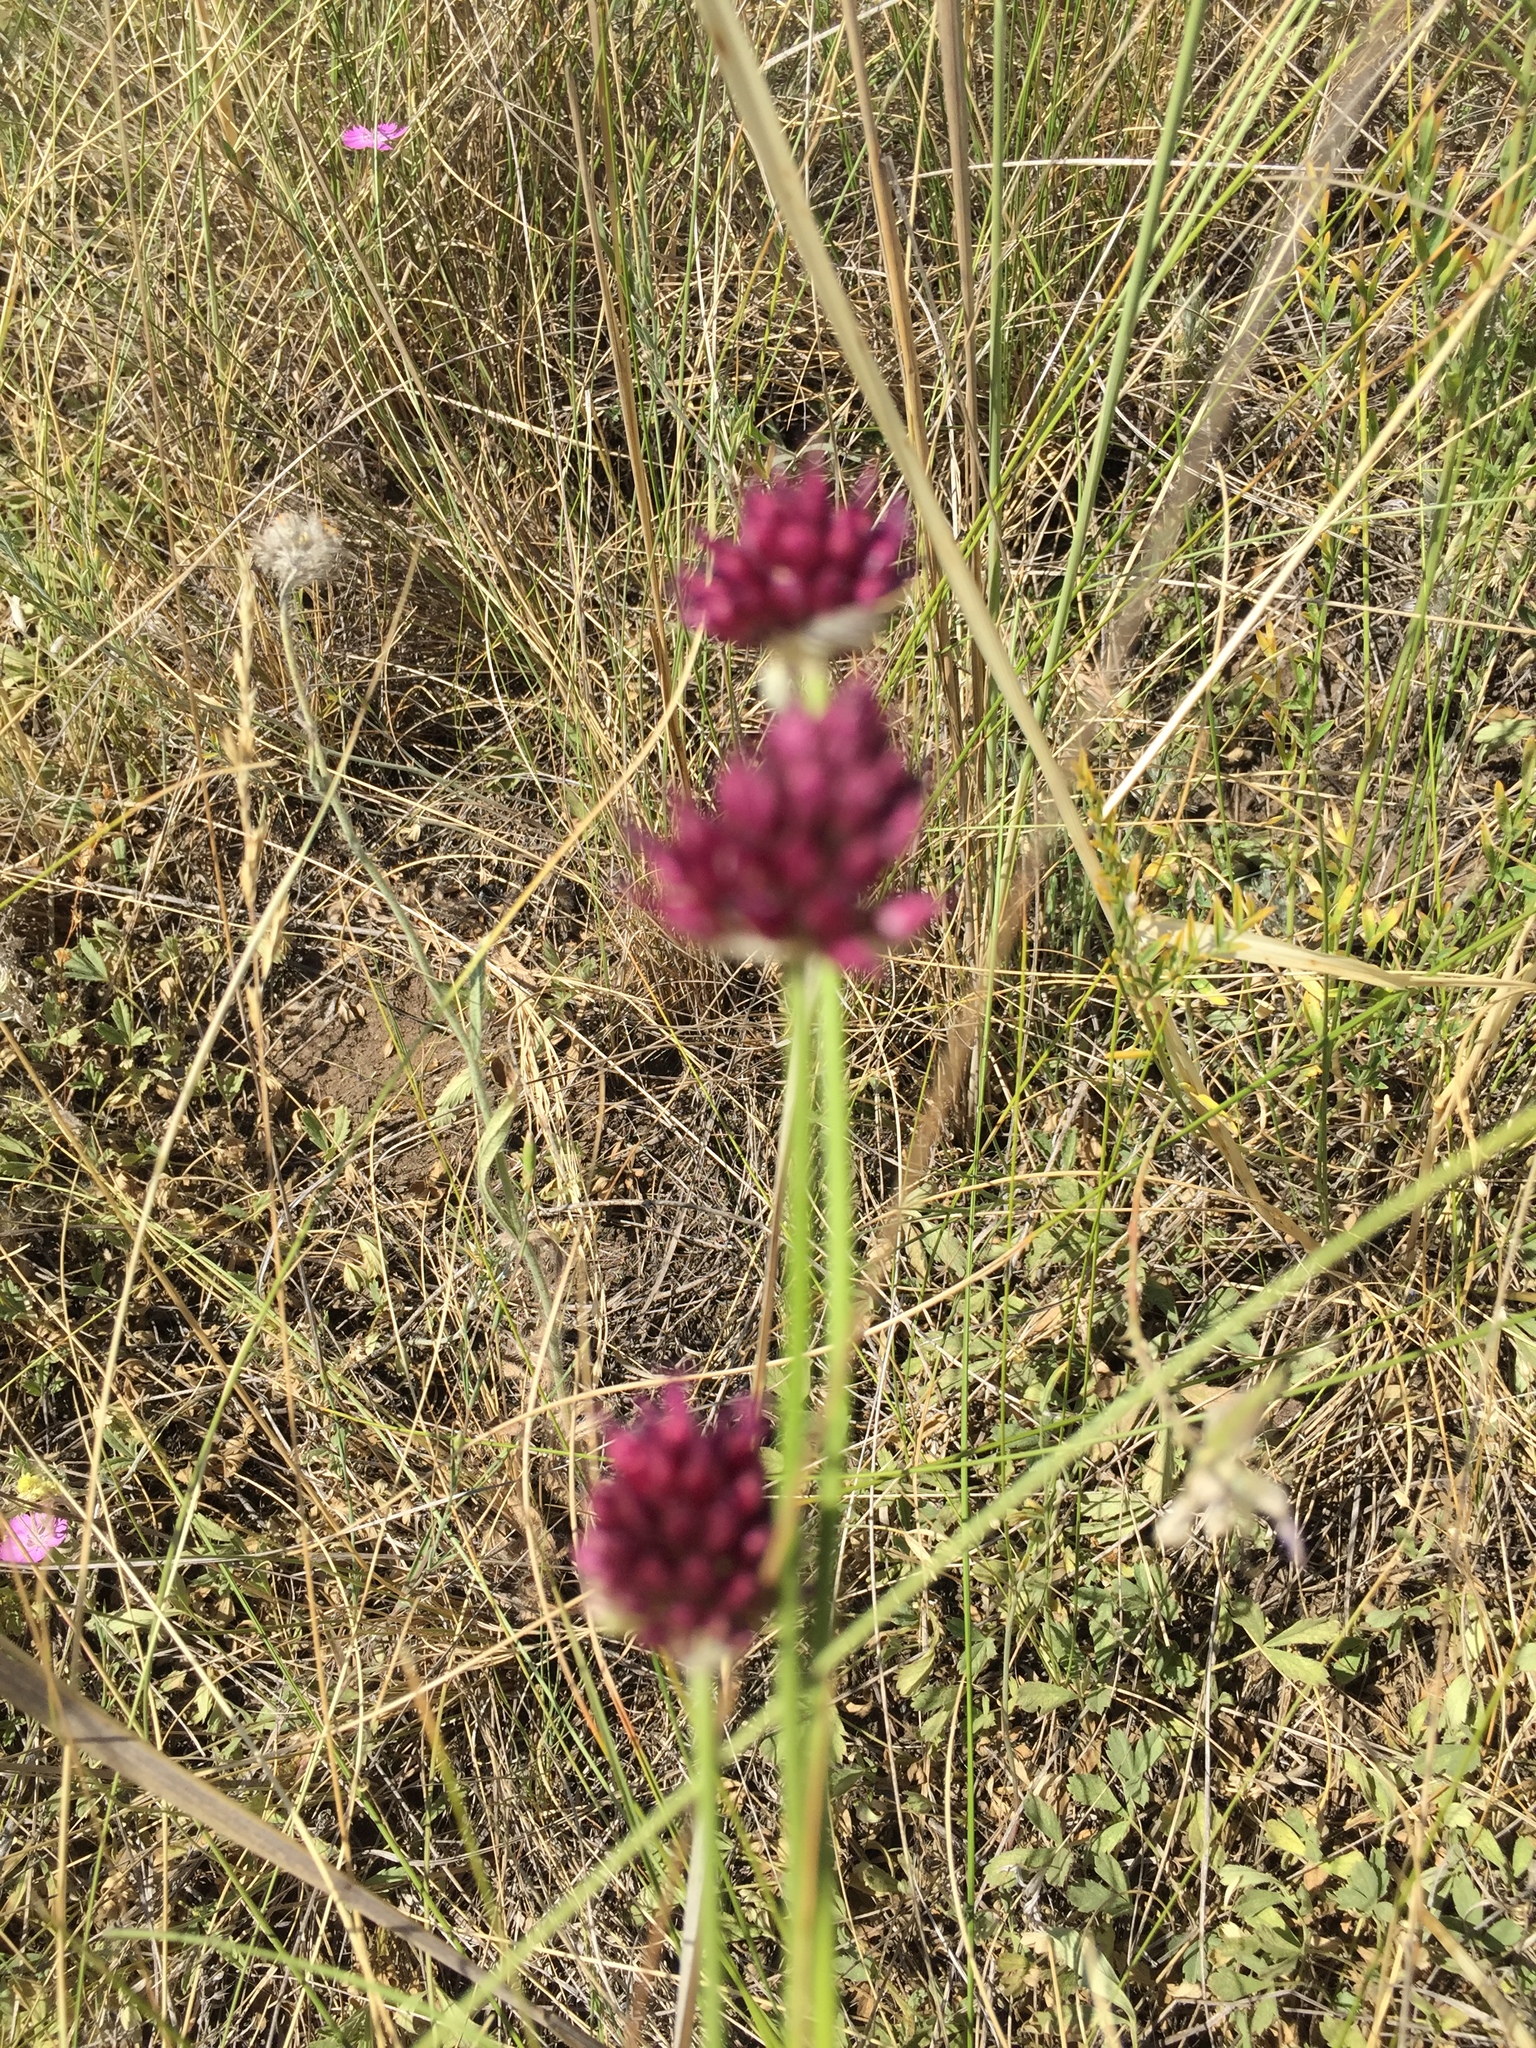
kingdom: Plantae
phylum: Tracheophyta
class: Liliopsida
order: Asparagales
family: Amaryllidaceae
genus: Allium
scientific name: Allium sphaerocephalon
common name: Round-headed leek
